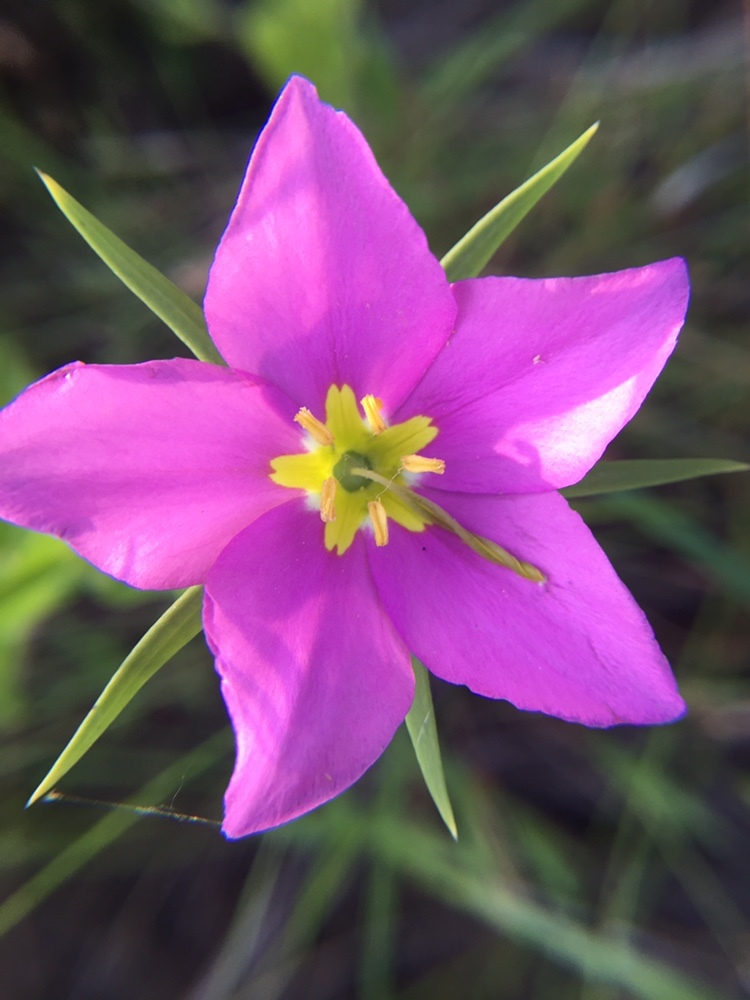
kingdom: Plantae
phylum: Tracheophyta
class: Magnoliopsida
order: Gentianales
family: Gentianaceae
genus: Sabatia
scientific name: Sabatia campestris
